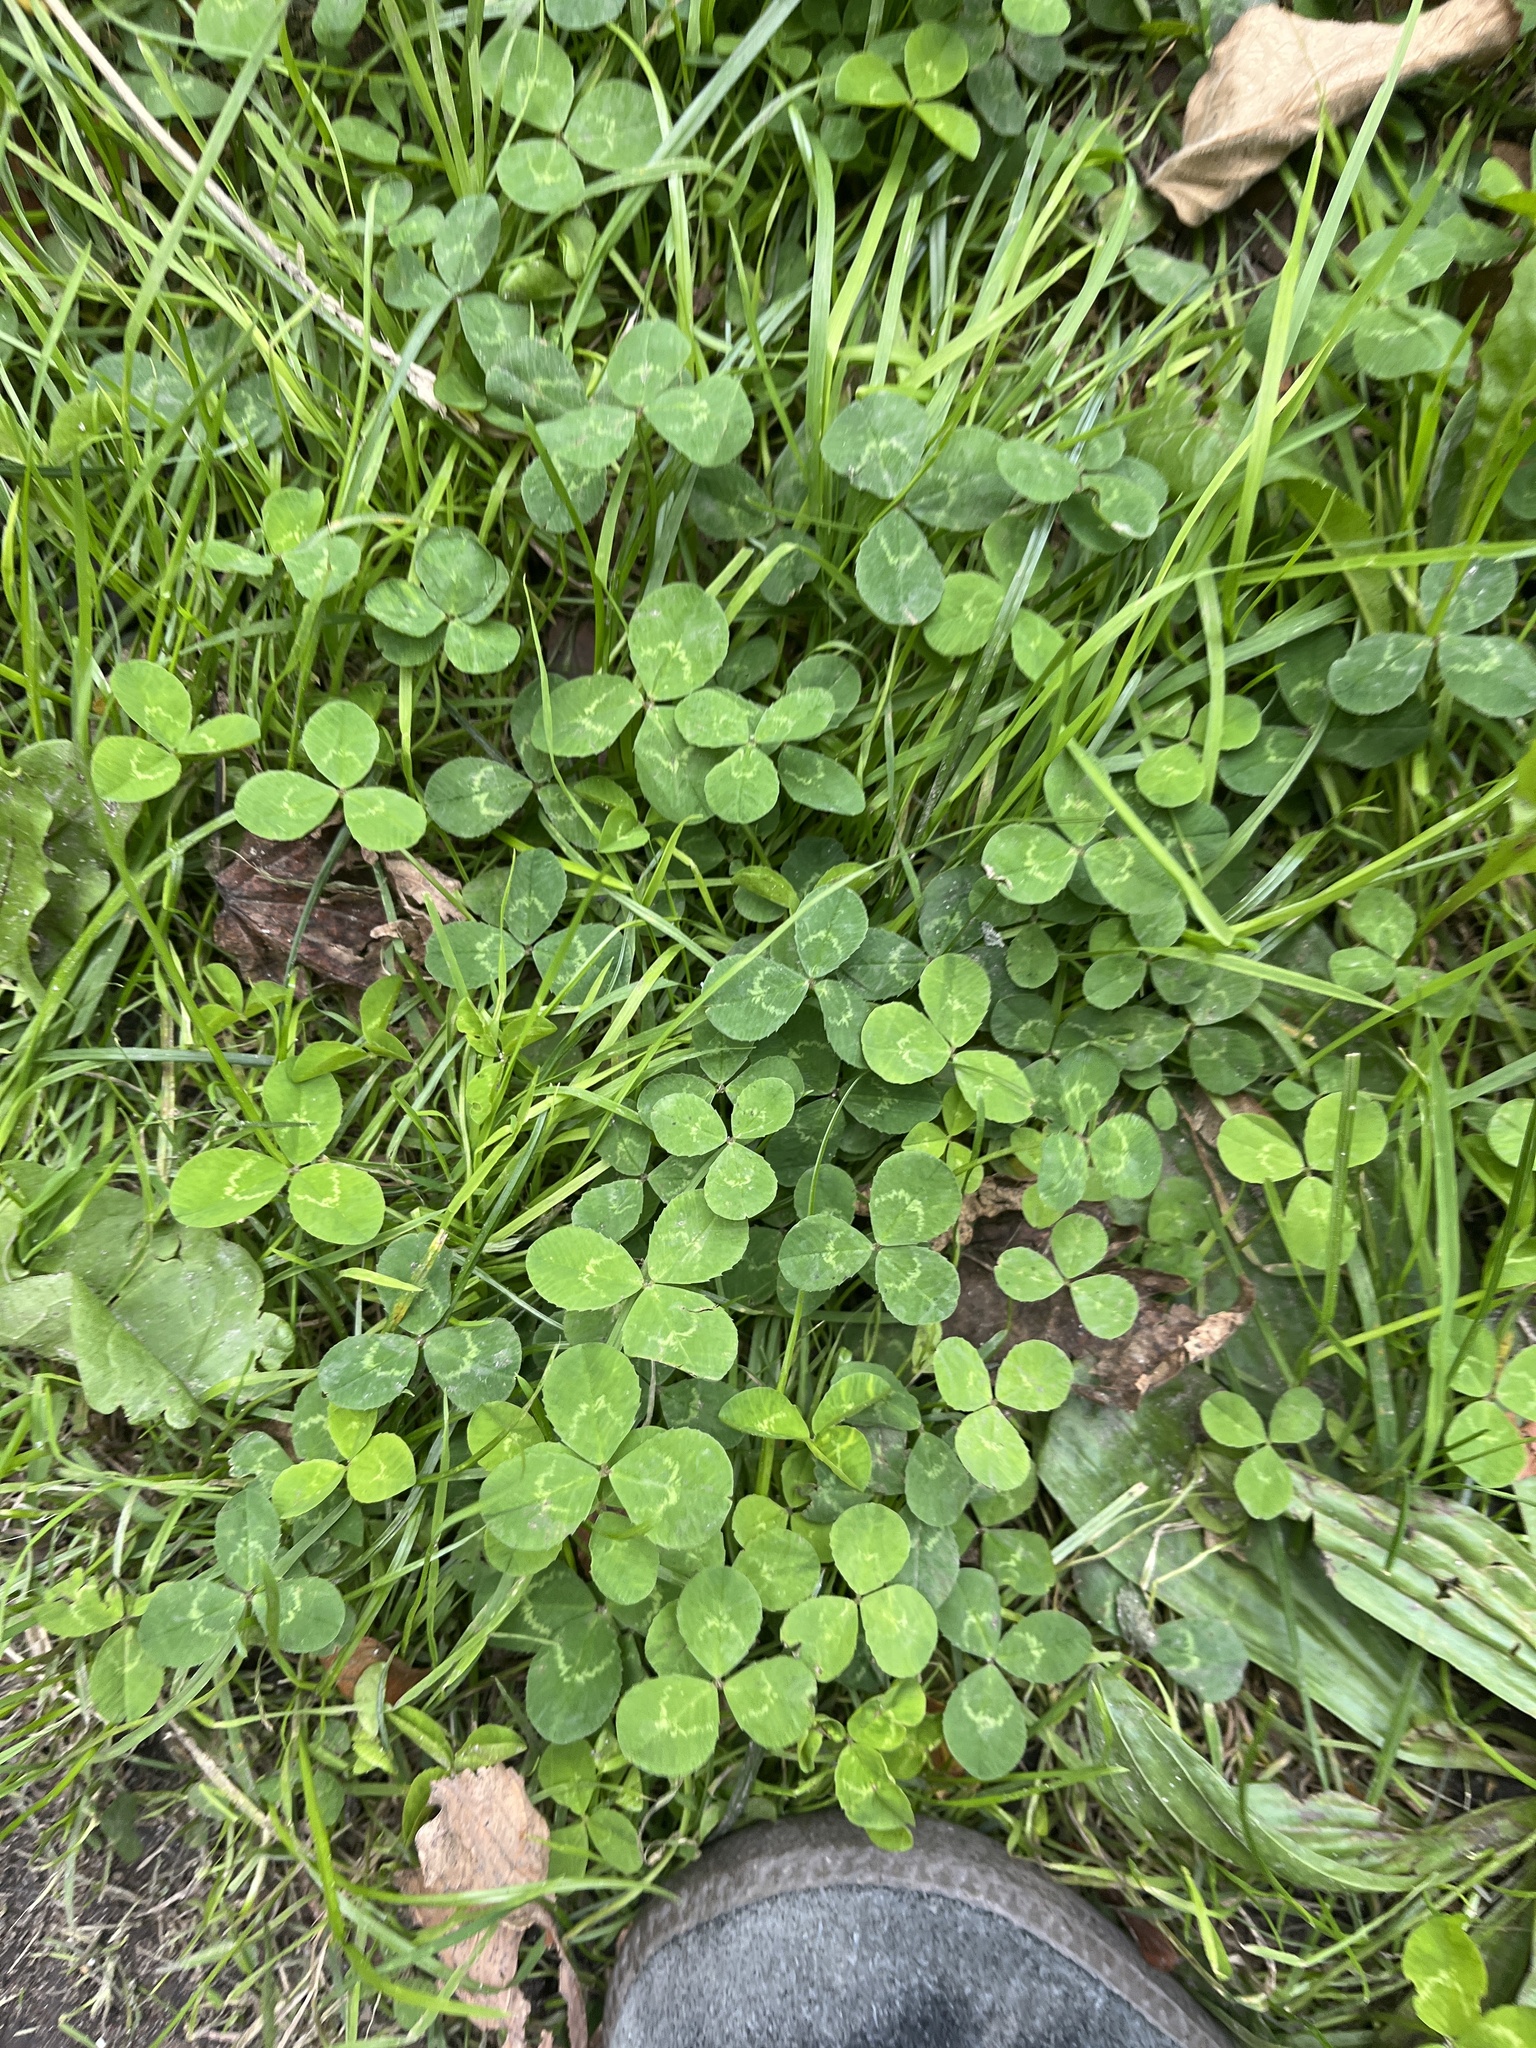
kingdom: Plantae
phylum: Tracheophyta
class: Magnoliopsida
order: Fabales
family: Fabaceae
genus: Trifolium
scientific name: Trifolium repens
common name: White clover
